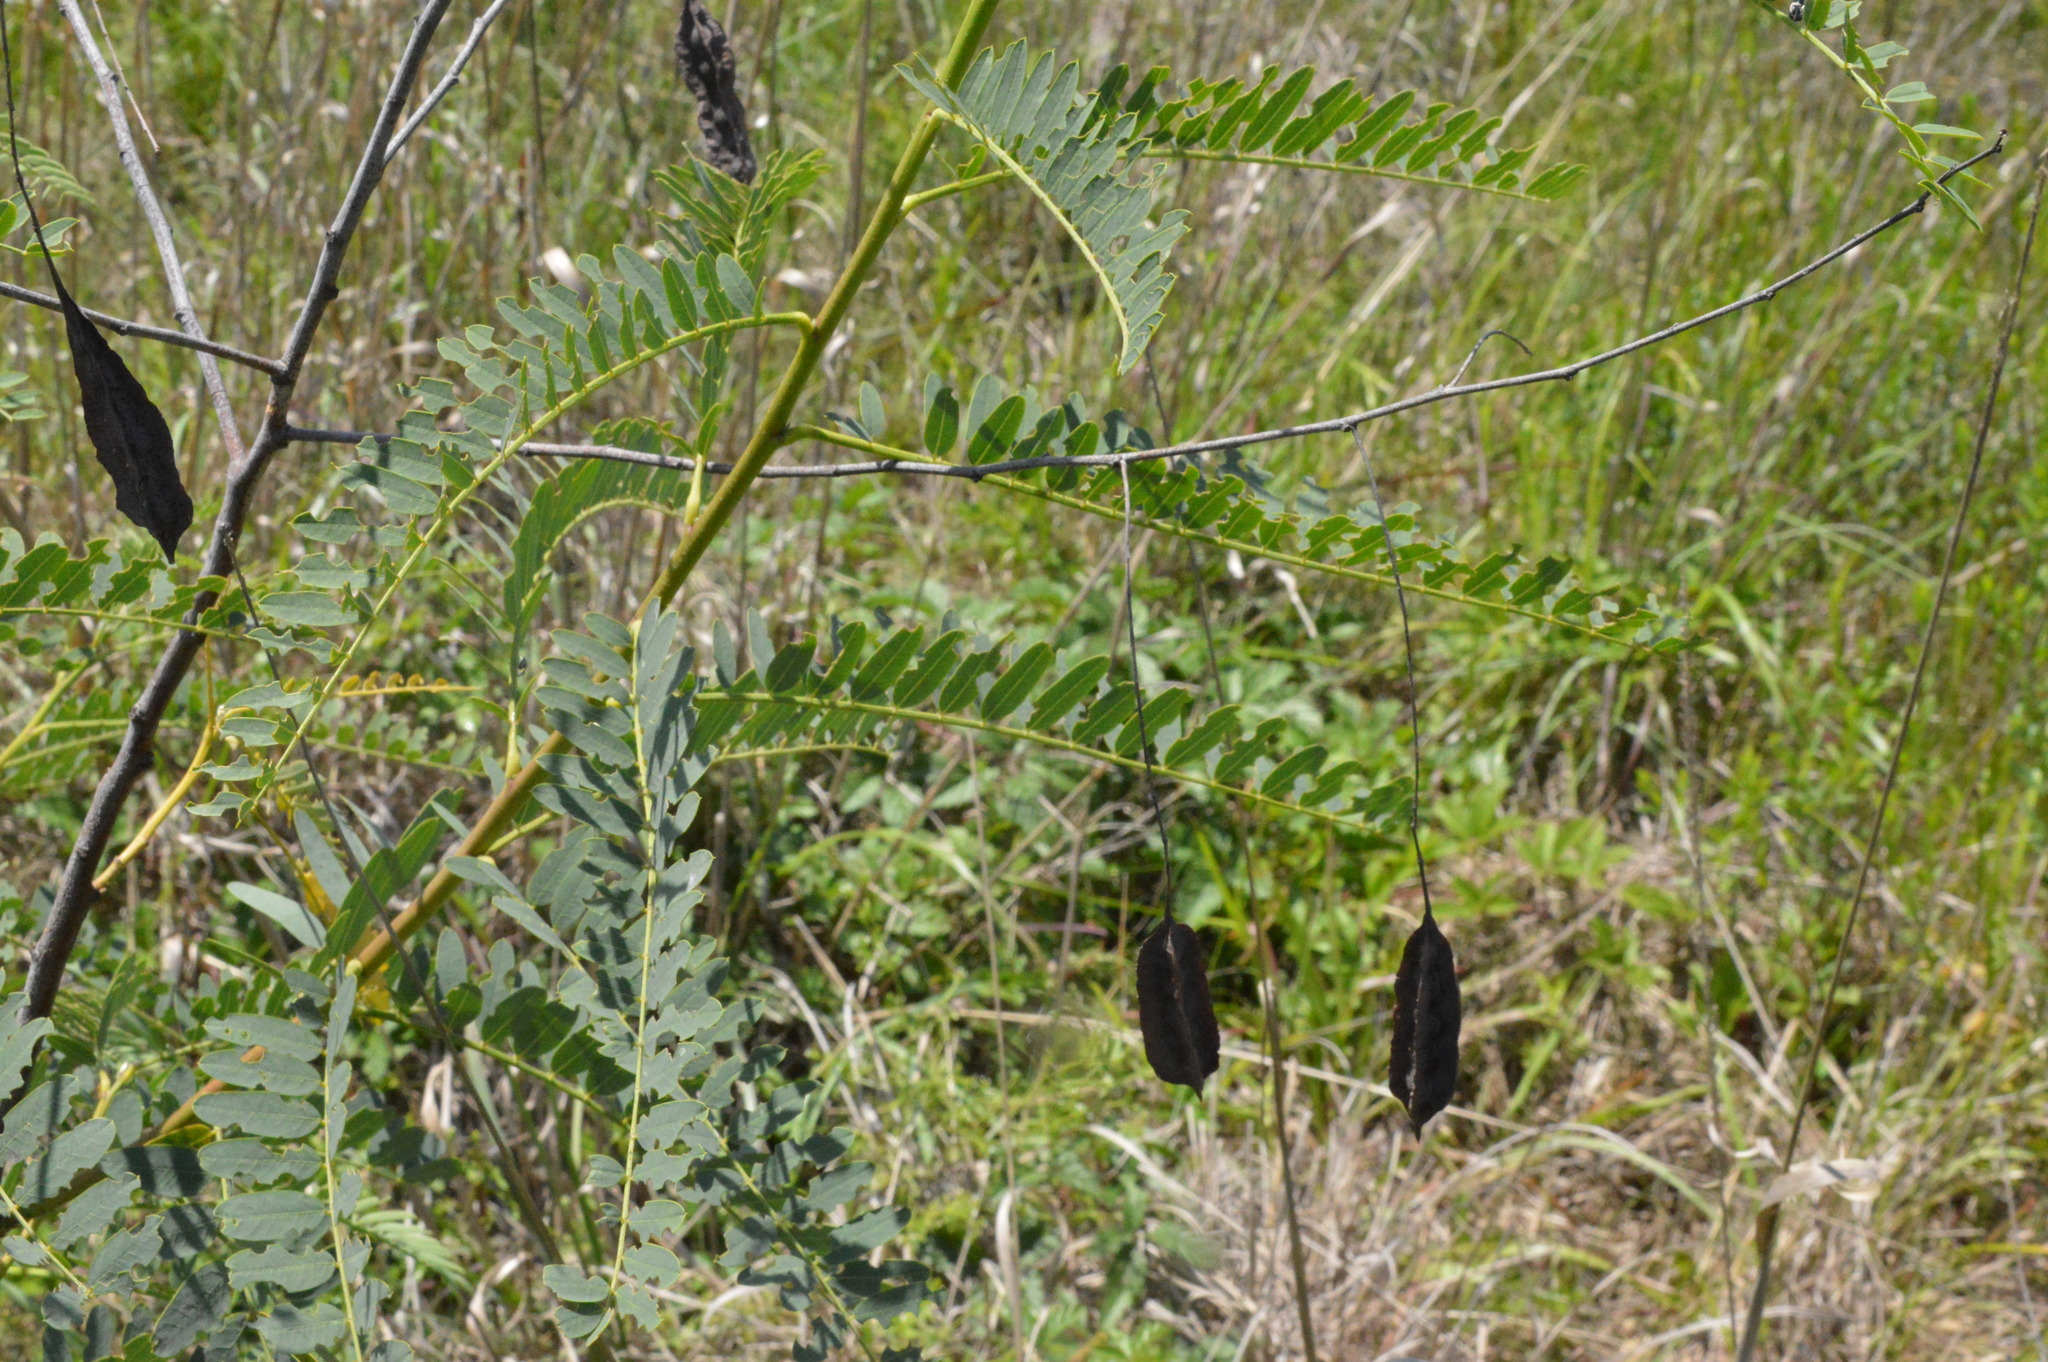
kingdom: Plantae
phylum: Tracheophyta
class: Magnoliopsida
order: Fabales
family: Fabaceae
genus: Sesbania
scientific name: Sesbania drummondii
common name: Poison-bean
